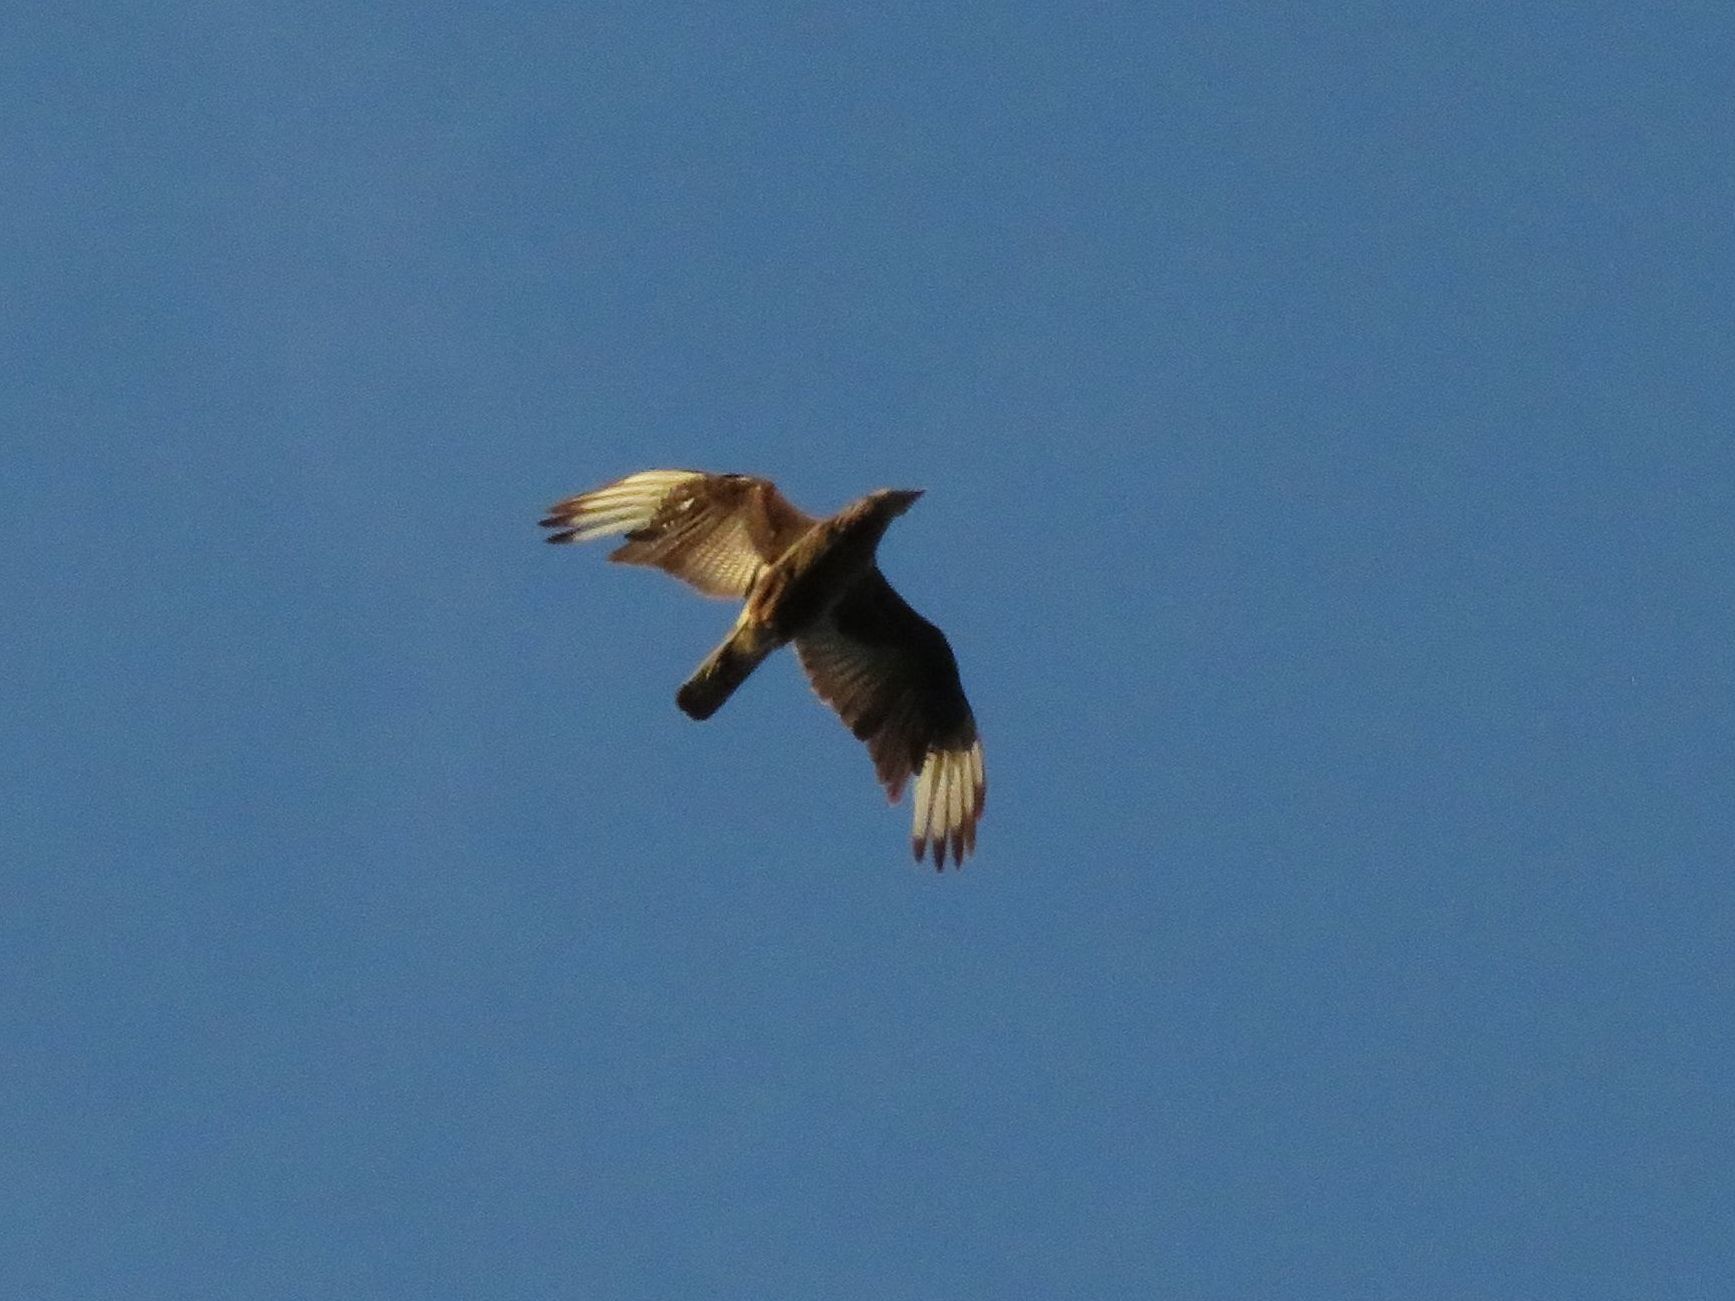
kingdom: Animalia
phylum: Chordata
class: Aves
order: Falconiformes
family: Falconidae
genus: Caracara
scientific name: Caracara plancus
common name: Southern caracara
